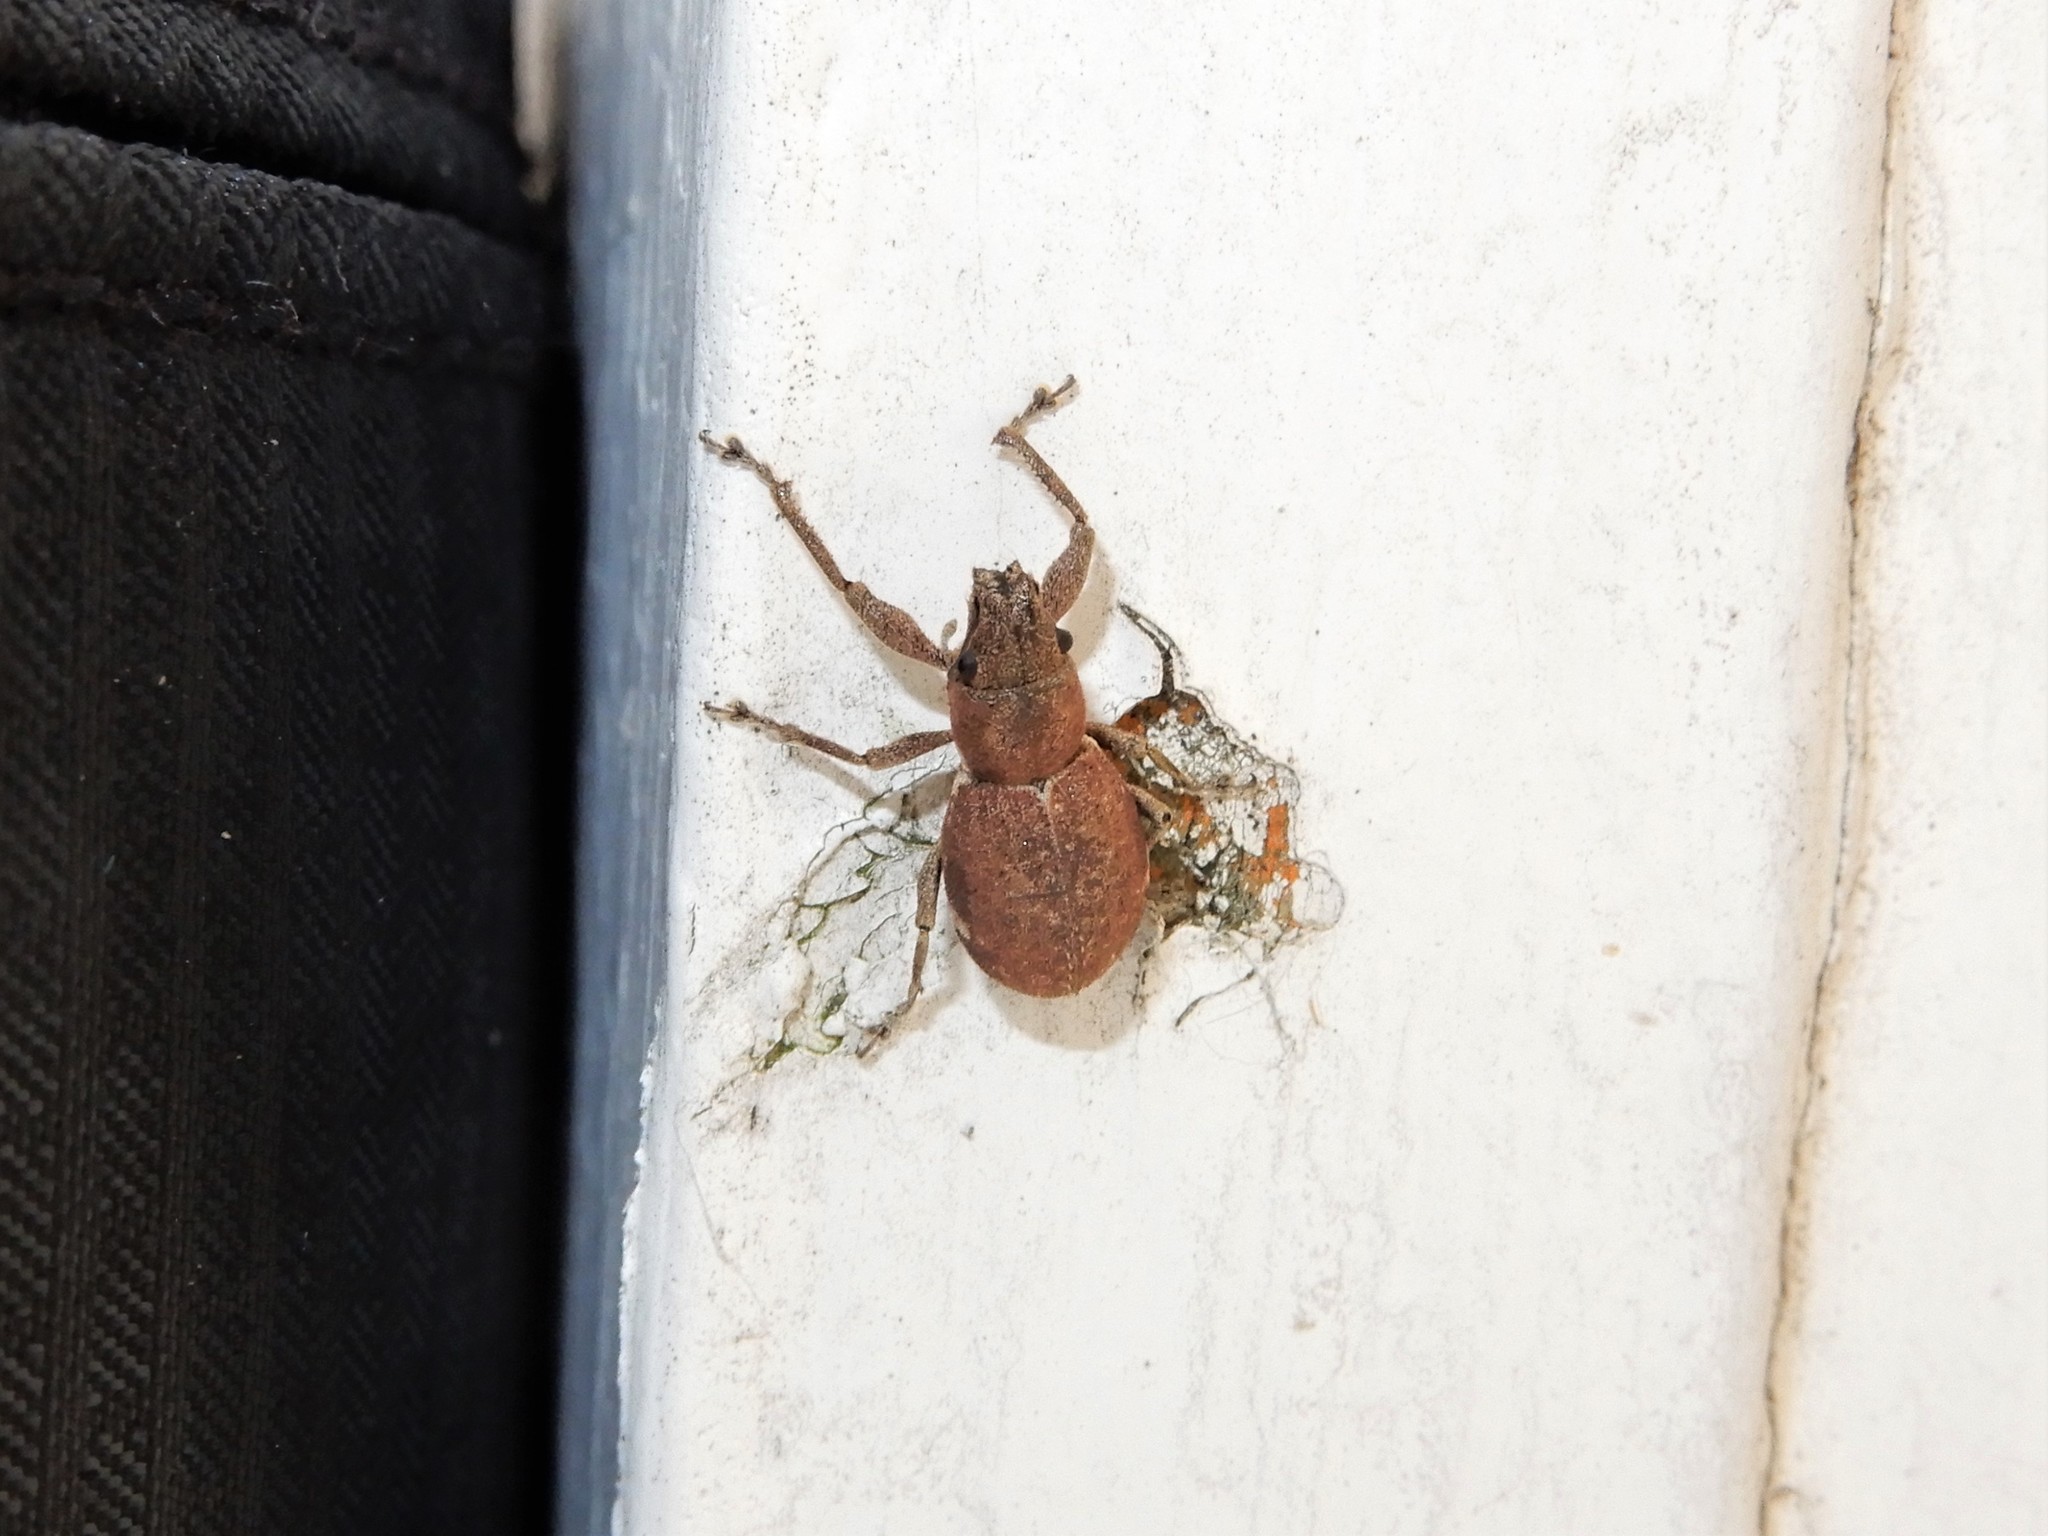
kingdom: Animalia
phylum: Arthropoda
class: Insecta
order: Coleoptera
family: Curculionidae
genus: Naupactus
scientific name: Naupactus cervinus
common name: Fuller rose beetle
